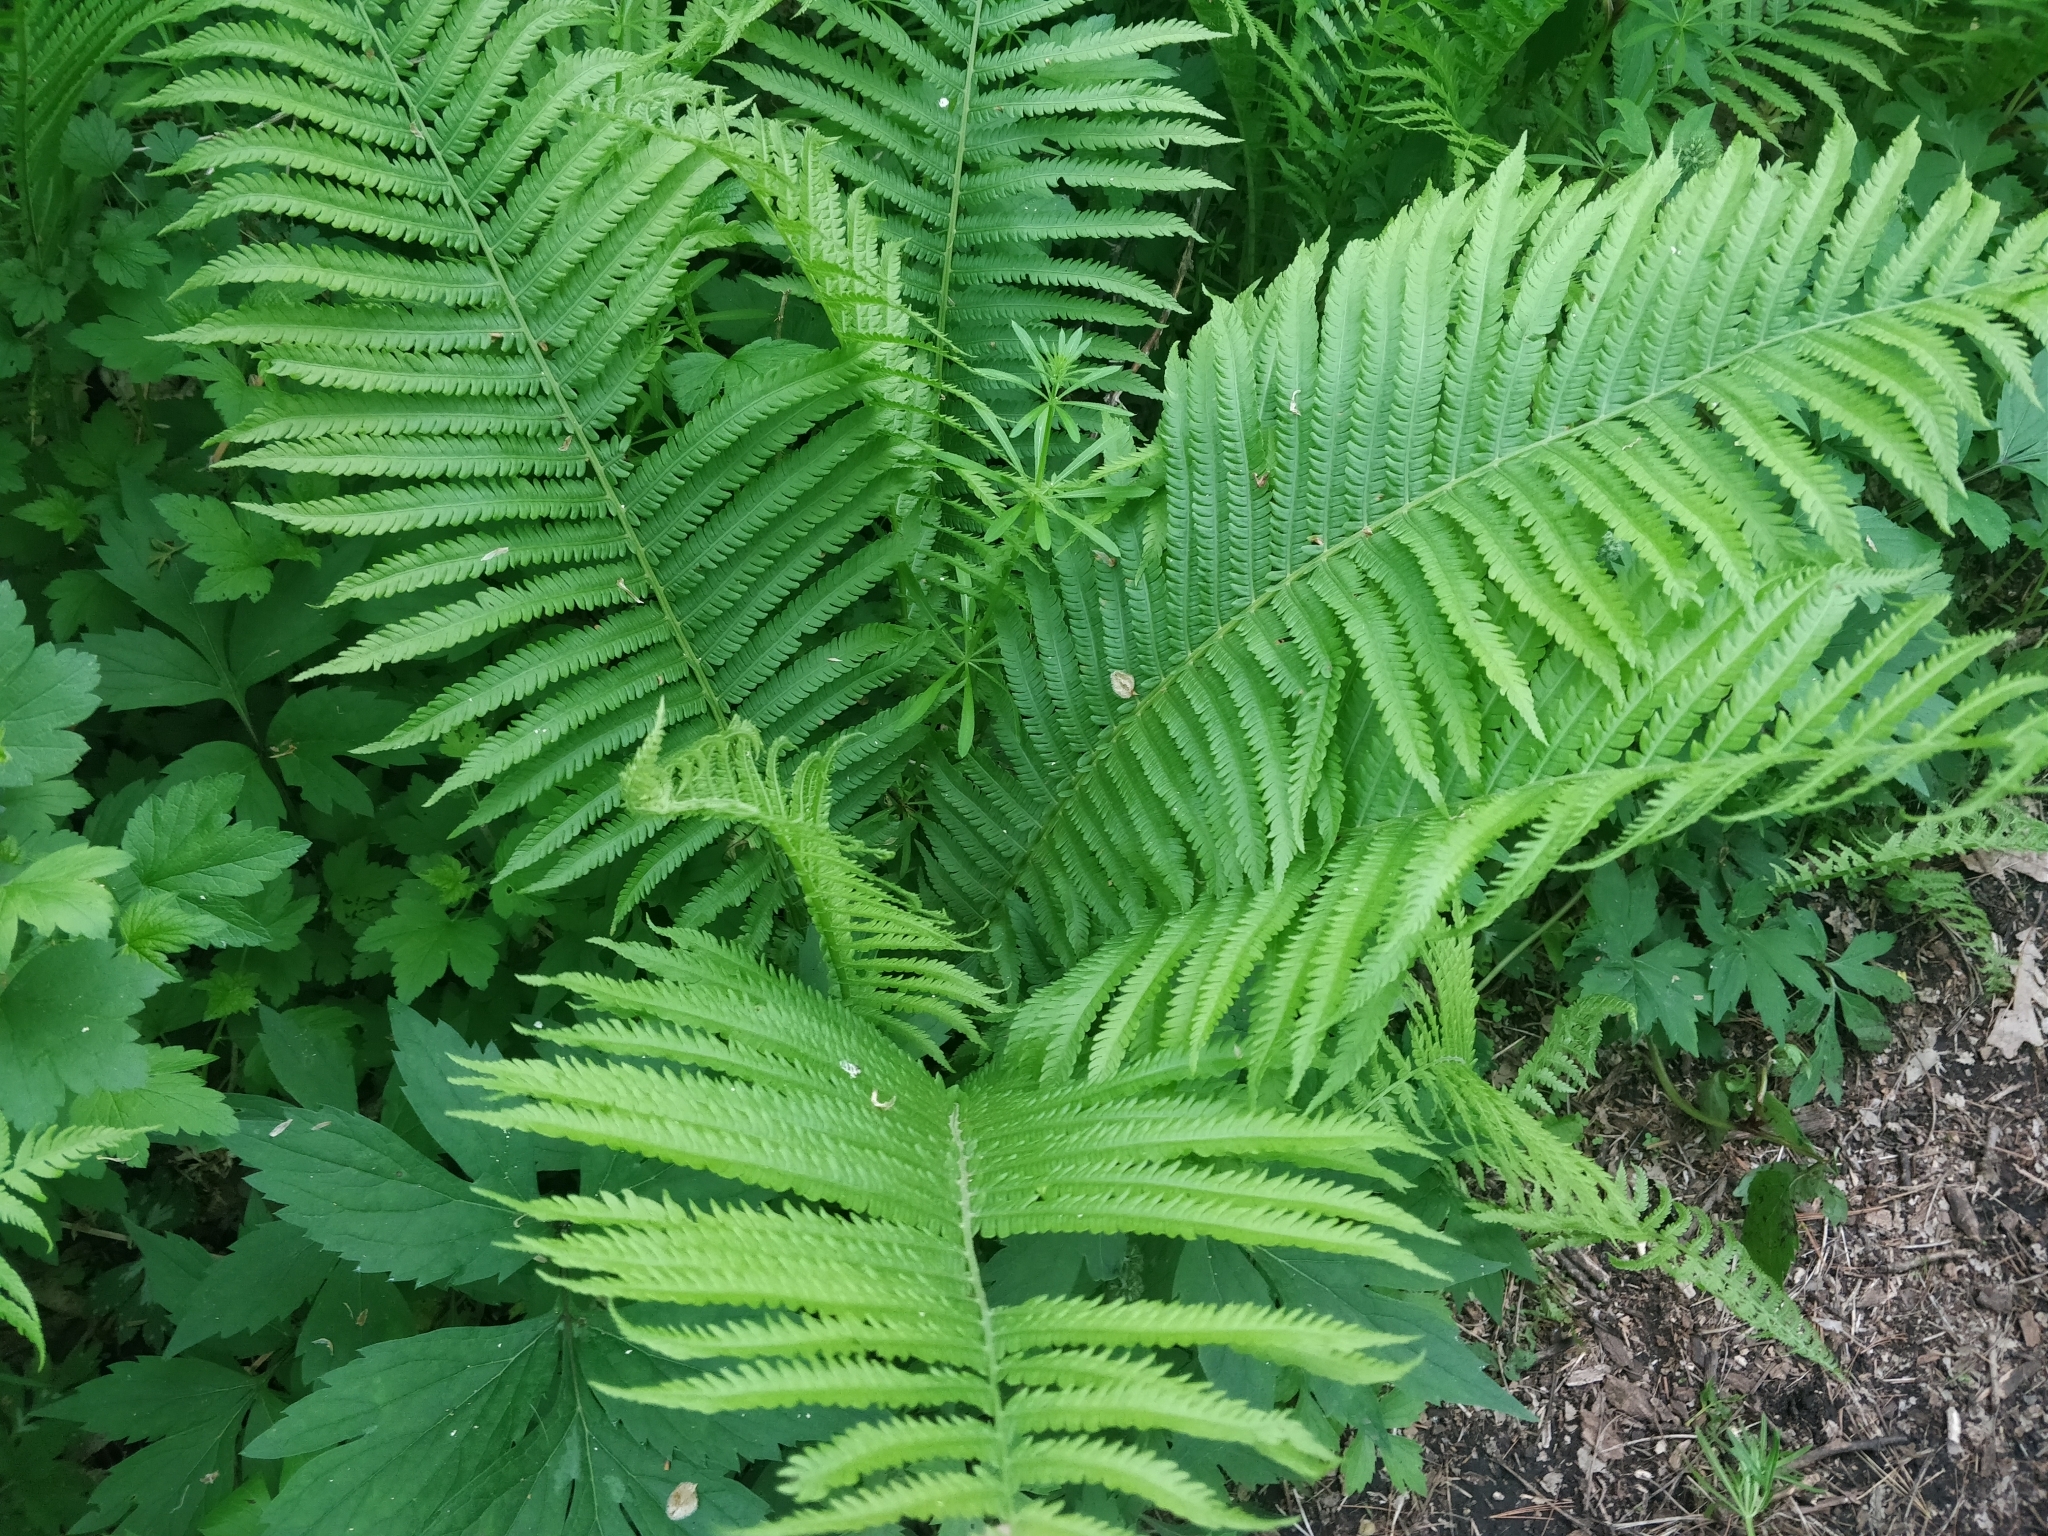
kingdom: Plantae
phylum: Tracheophyta
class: Polypodiopsida
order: Polypodiales
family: Onocleaceae
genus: Matteuccia
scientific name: Matteuccia struthiopteris
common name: Ostrich fern
